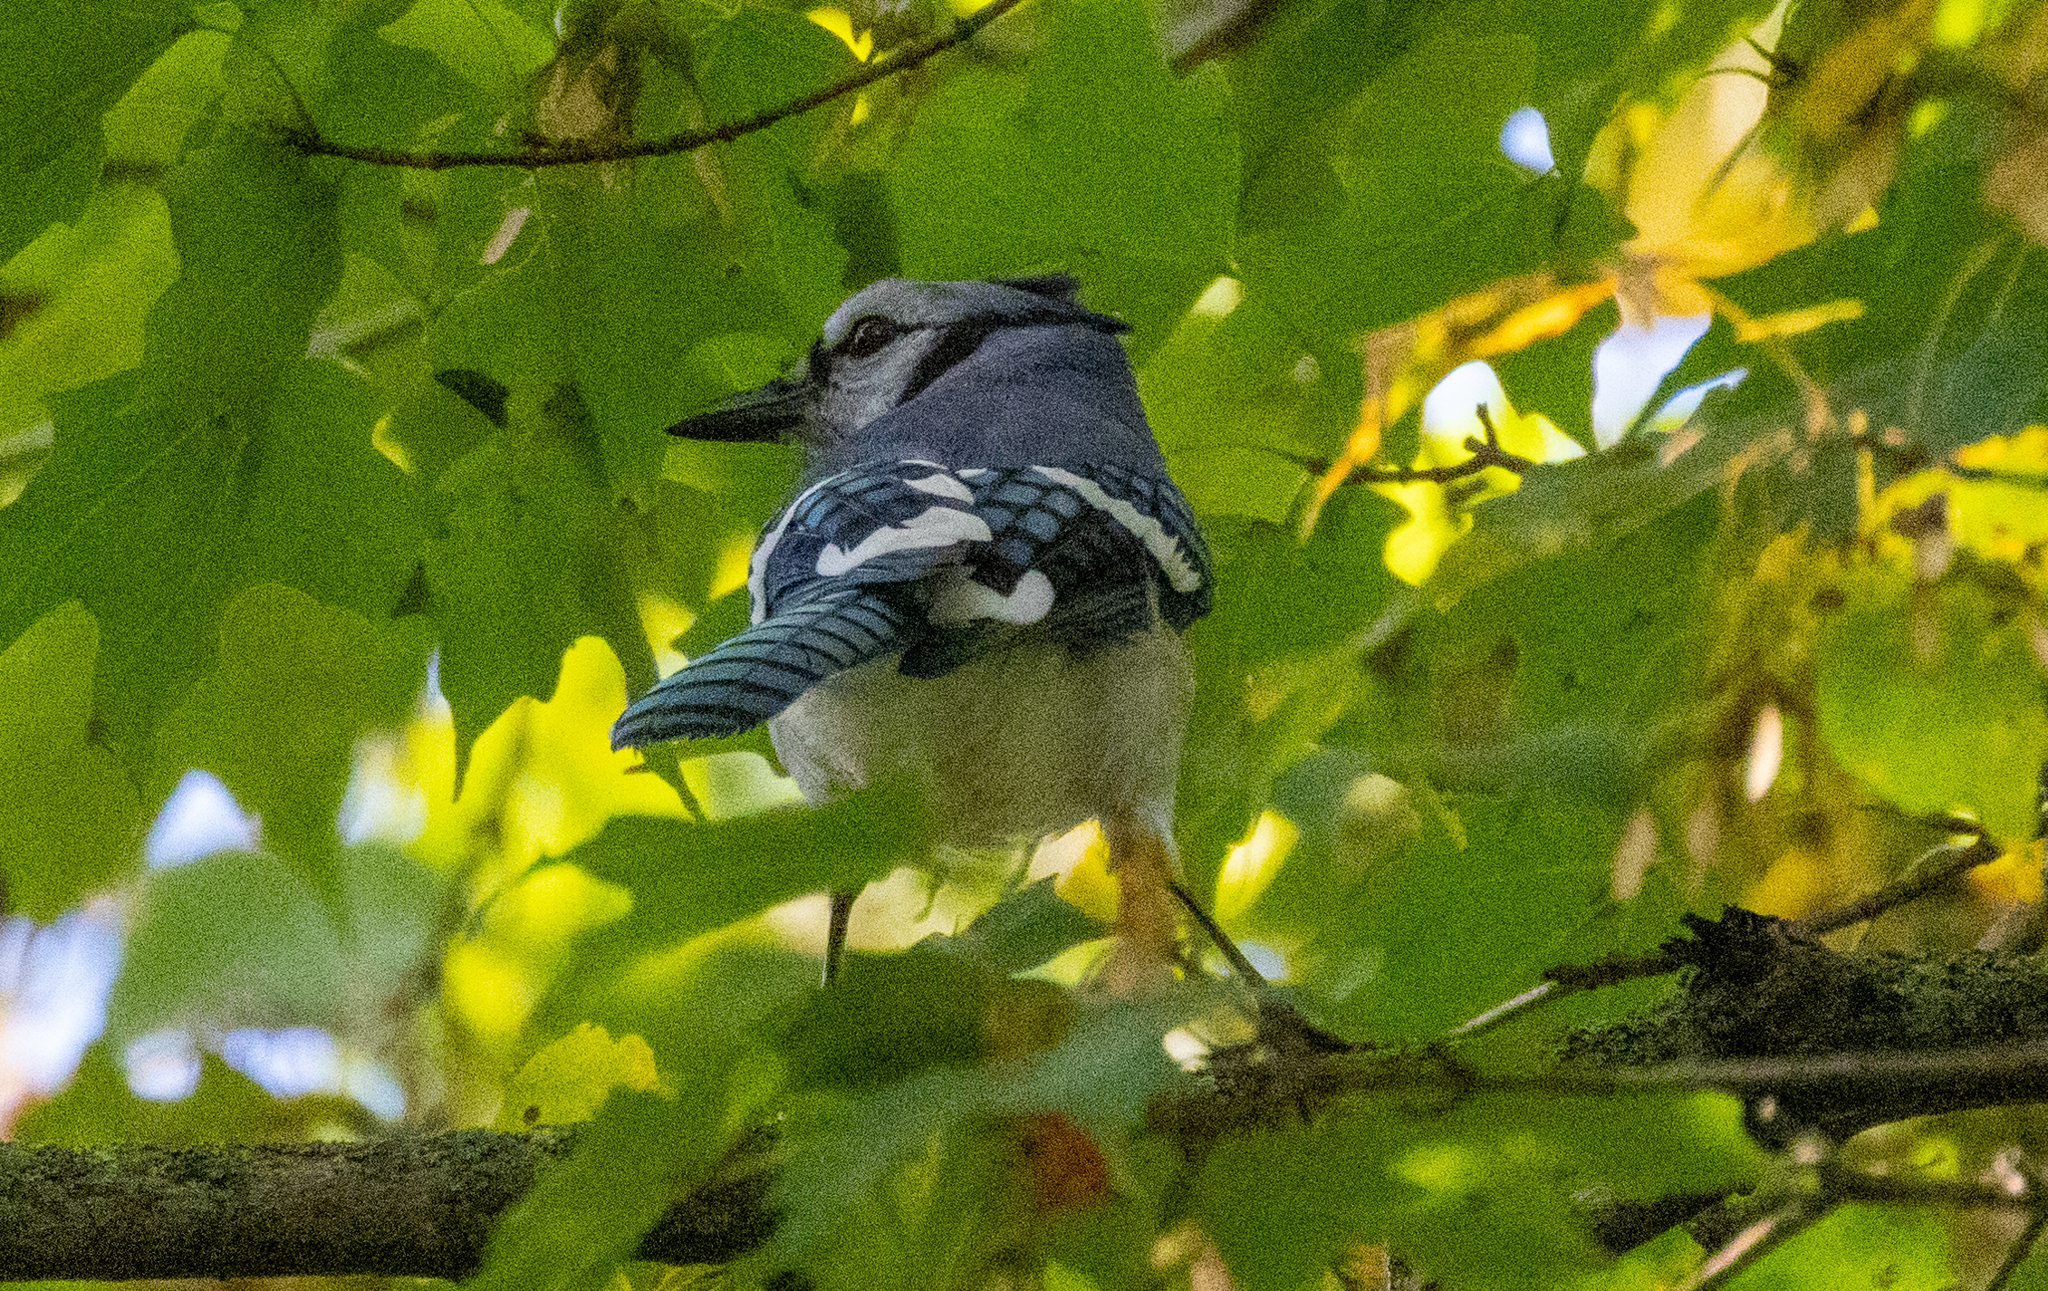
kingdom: Animalia
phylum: Chordata
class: Aves
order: Passeriformes
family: Corvidae
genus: Cyanocitta
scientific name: Cyanocitta cristata
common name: Blue jay
